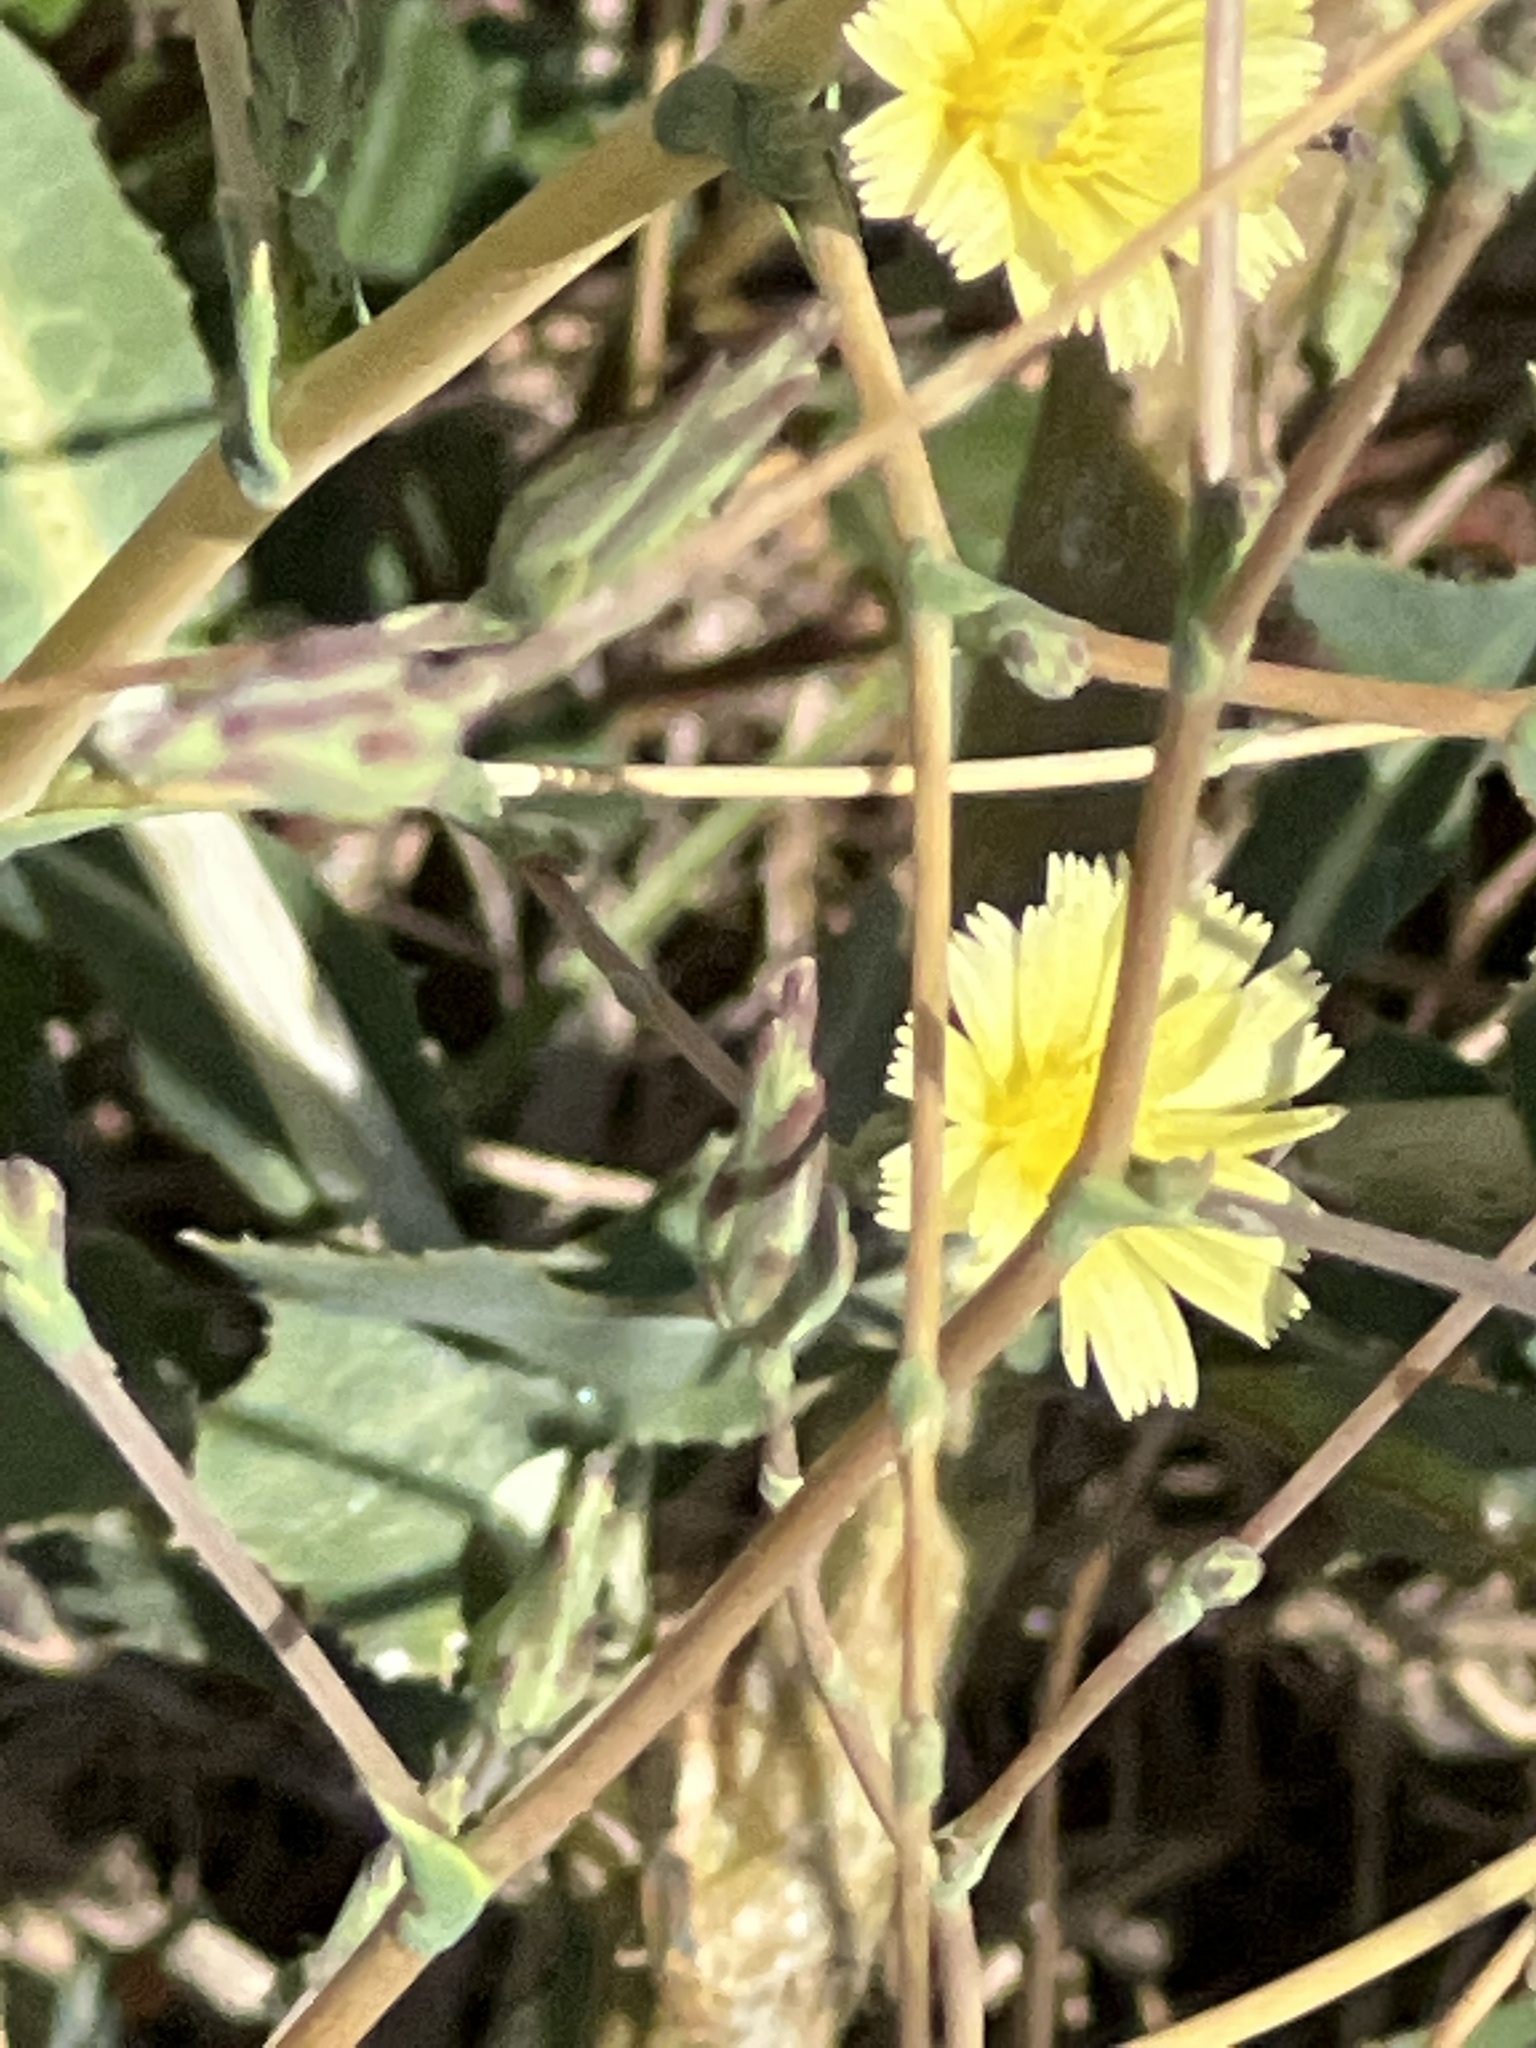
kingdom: Plantae
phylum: Tracheophyta
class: Magnoliopsida
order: Asterales
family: Asteraceae
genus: Lactuca
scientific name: Lactuca serriola
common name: Prickly lettuce
